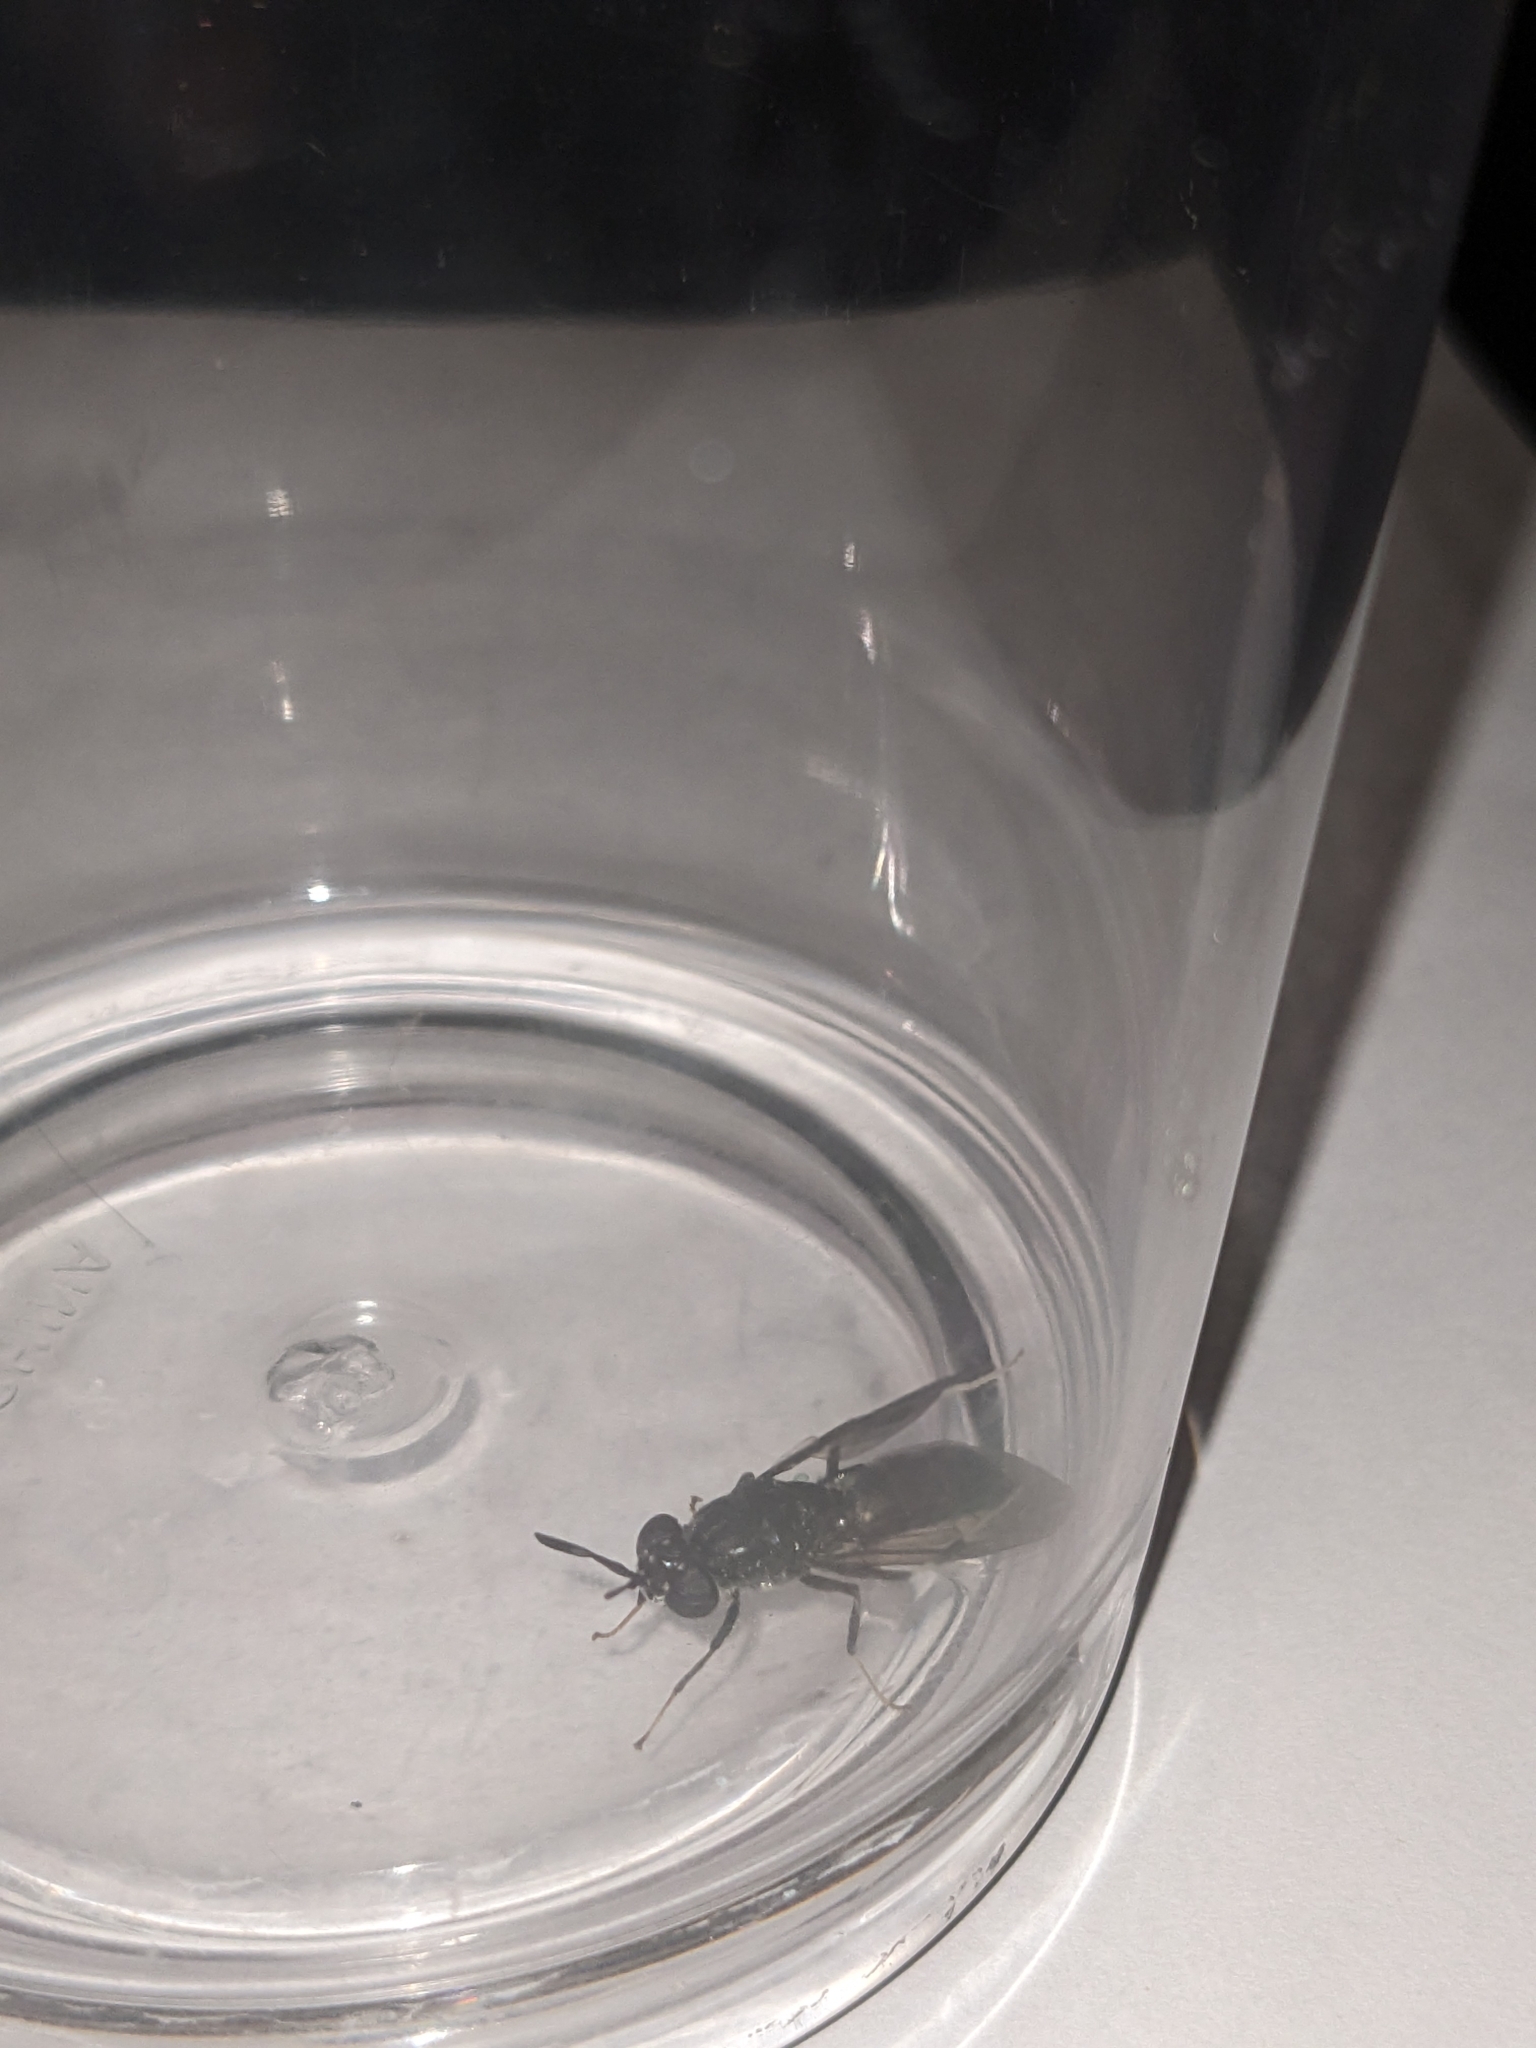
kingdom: Animalia
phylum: Arthropoda
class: Insecta
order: Diptera
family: Stratiomyidae
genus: Hermetia
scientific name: Hermetia illucens
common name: Black soldier fly
